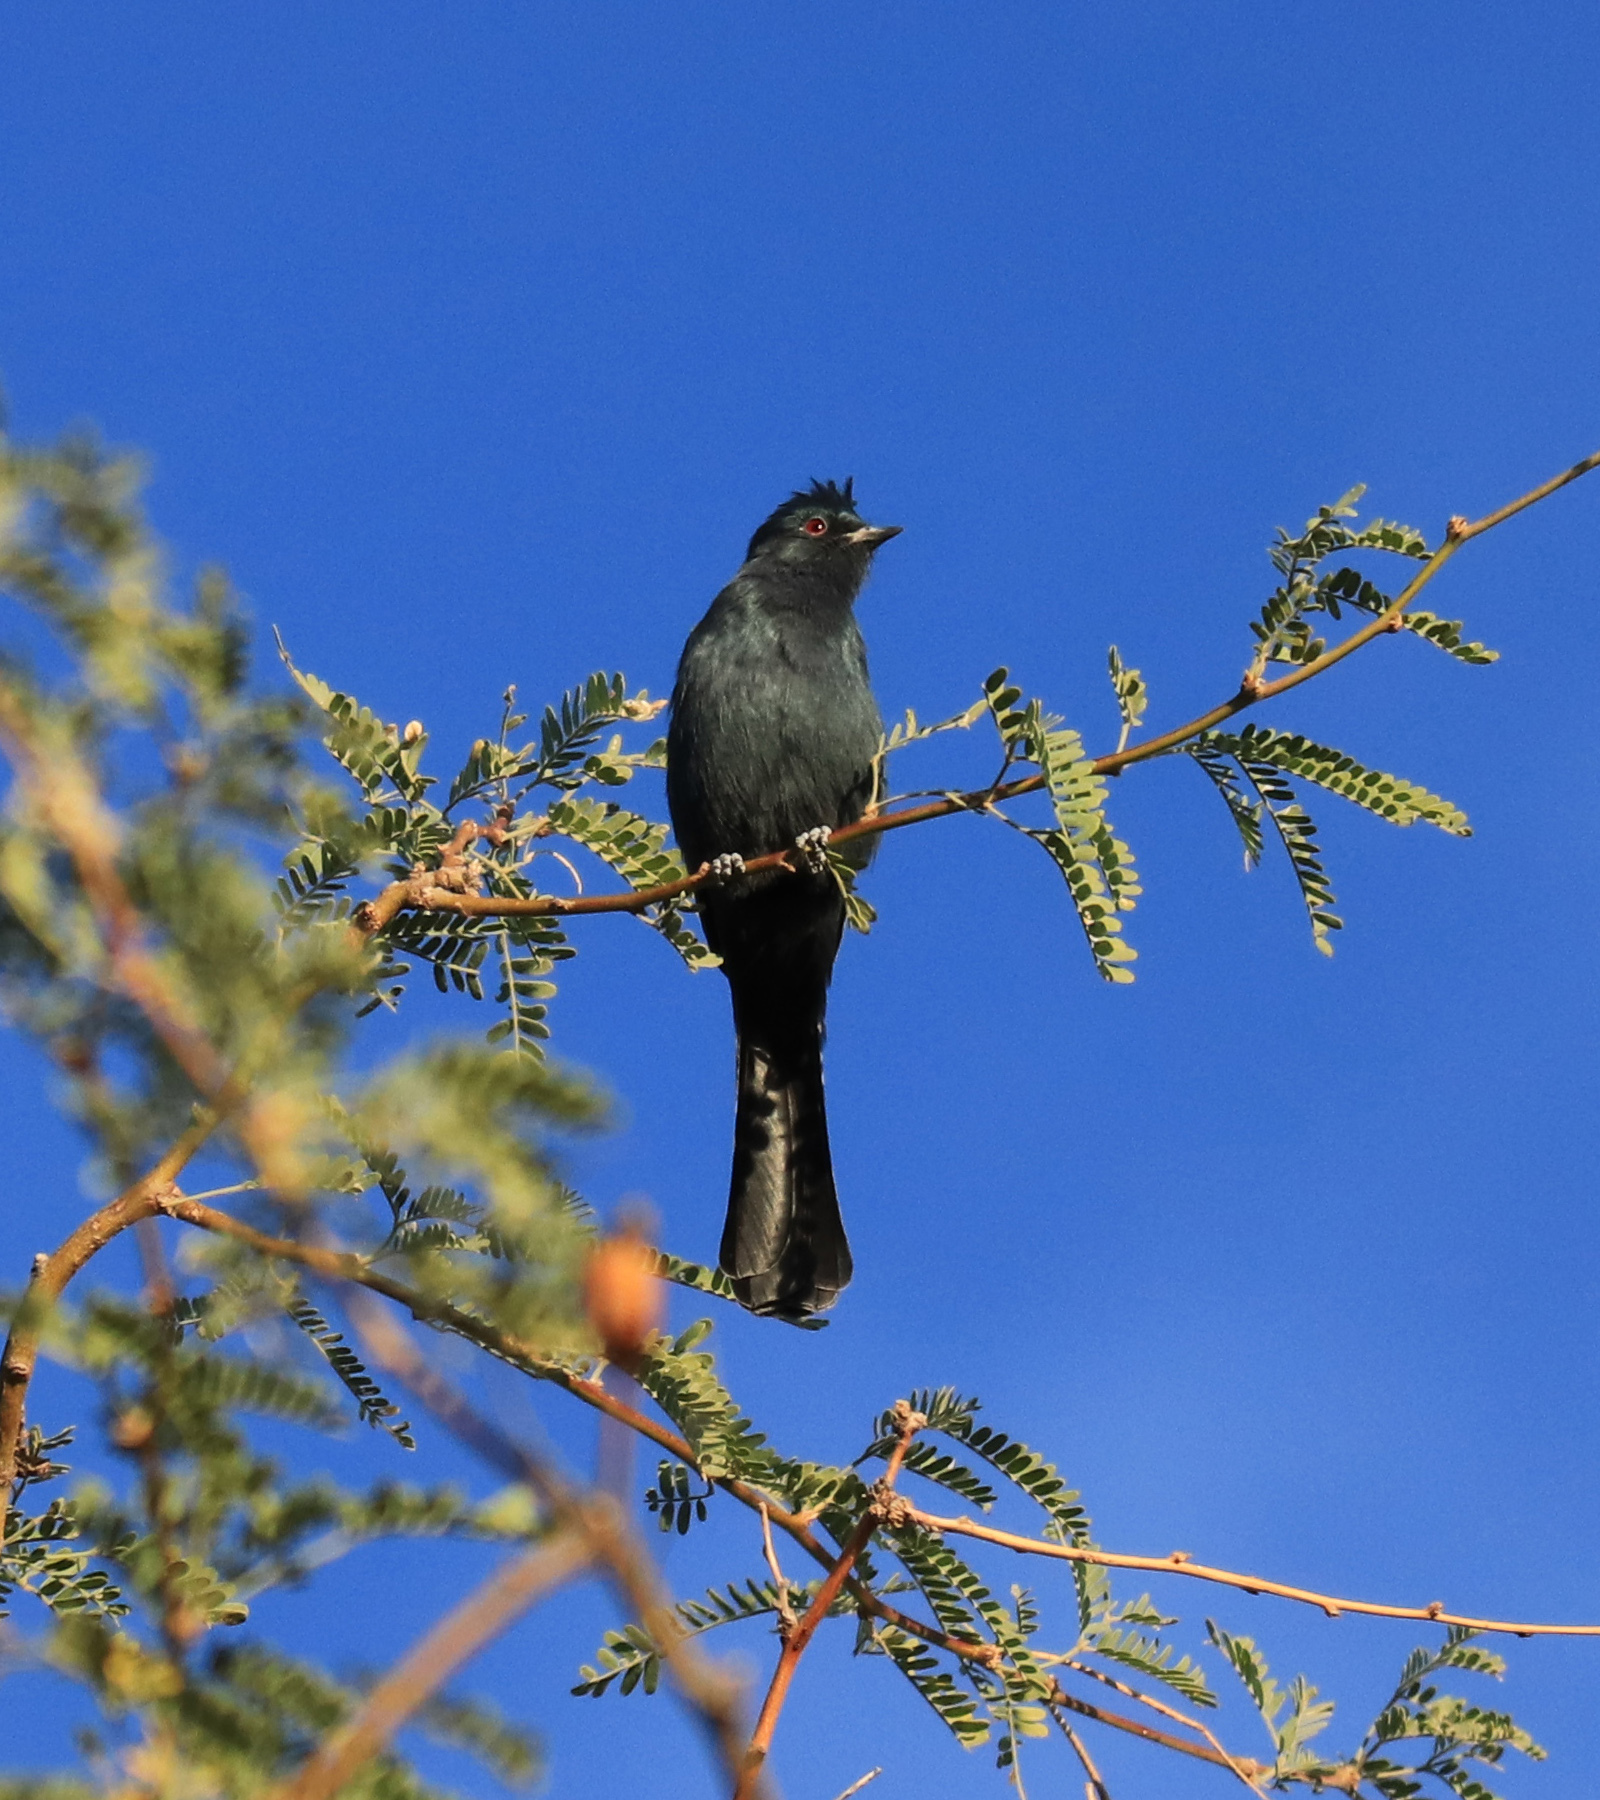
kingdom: Animalia
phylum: Chordata
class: Aves
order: Passeriformes
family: Ptilogonatidae
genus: Phainopepla
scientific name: Phainopepla nitens
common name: Phainopepla
